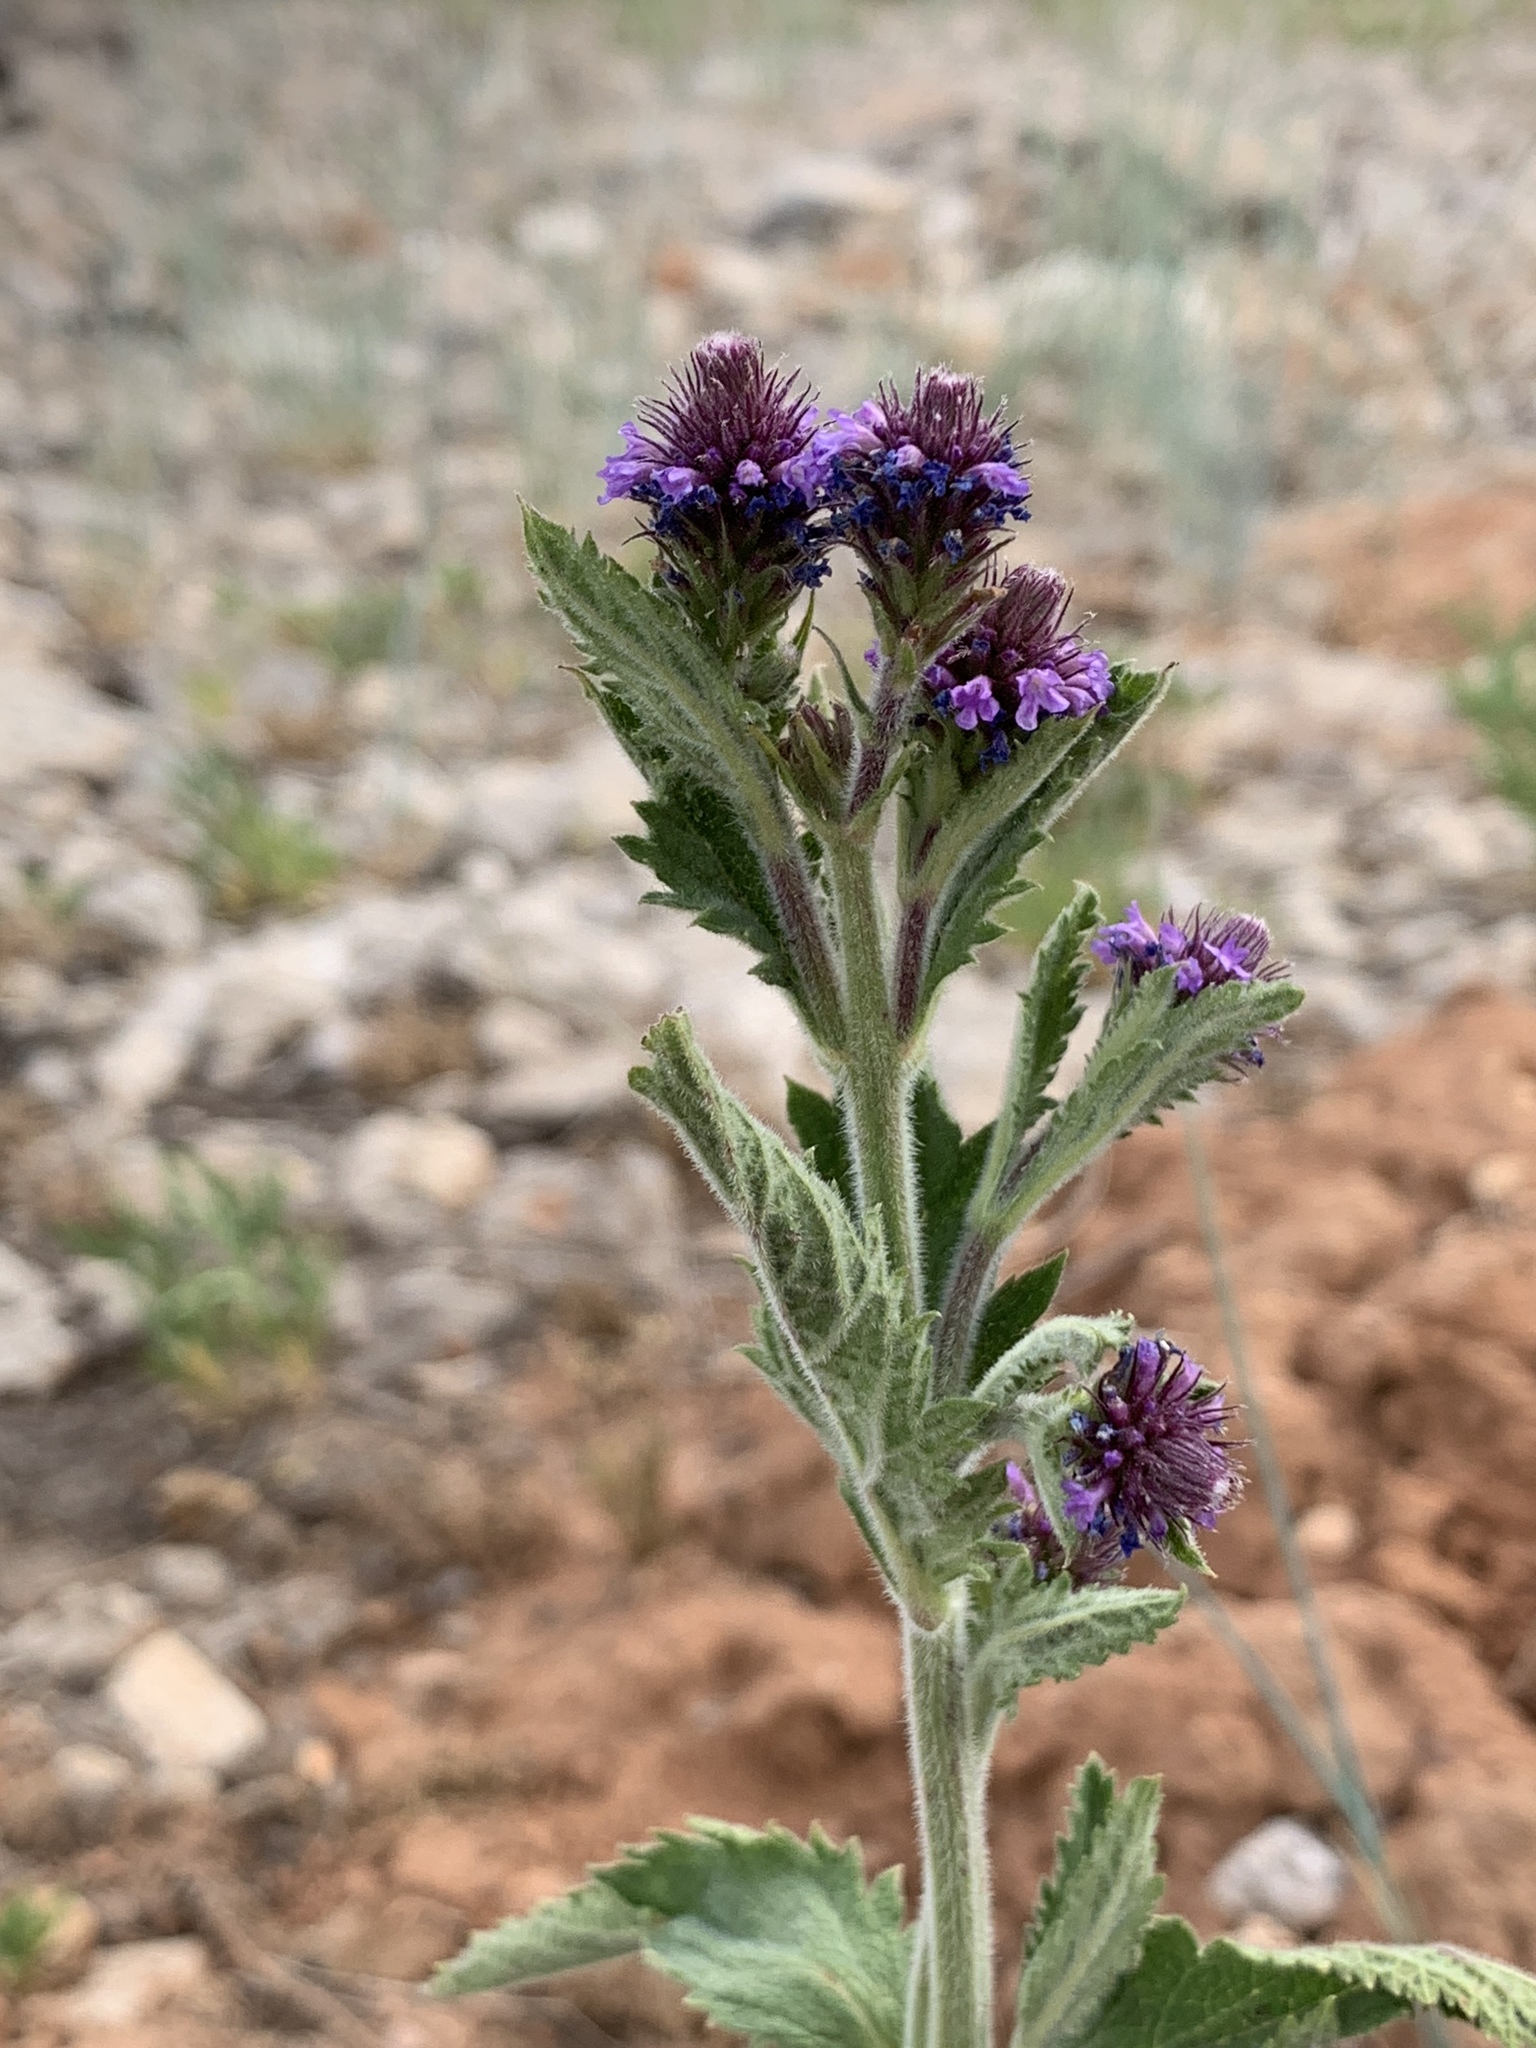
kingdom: Plantae
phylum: Tracheophyta
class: Magnoliopsida
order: Lamiales
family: Verbenaceae
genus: Verbena
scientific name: Verbena macdougalii
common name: New mexico vervain
